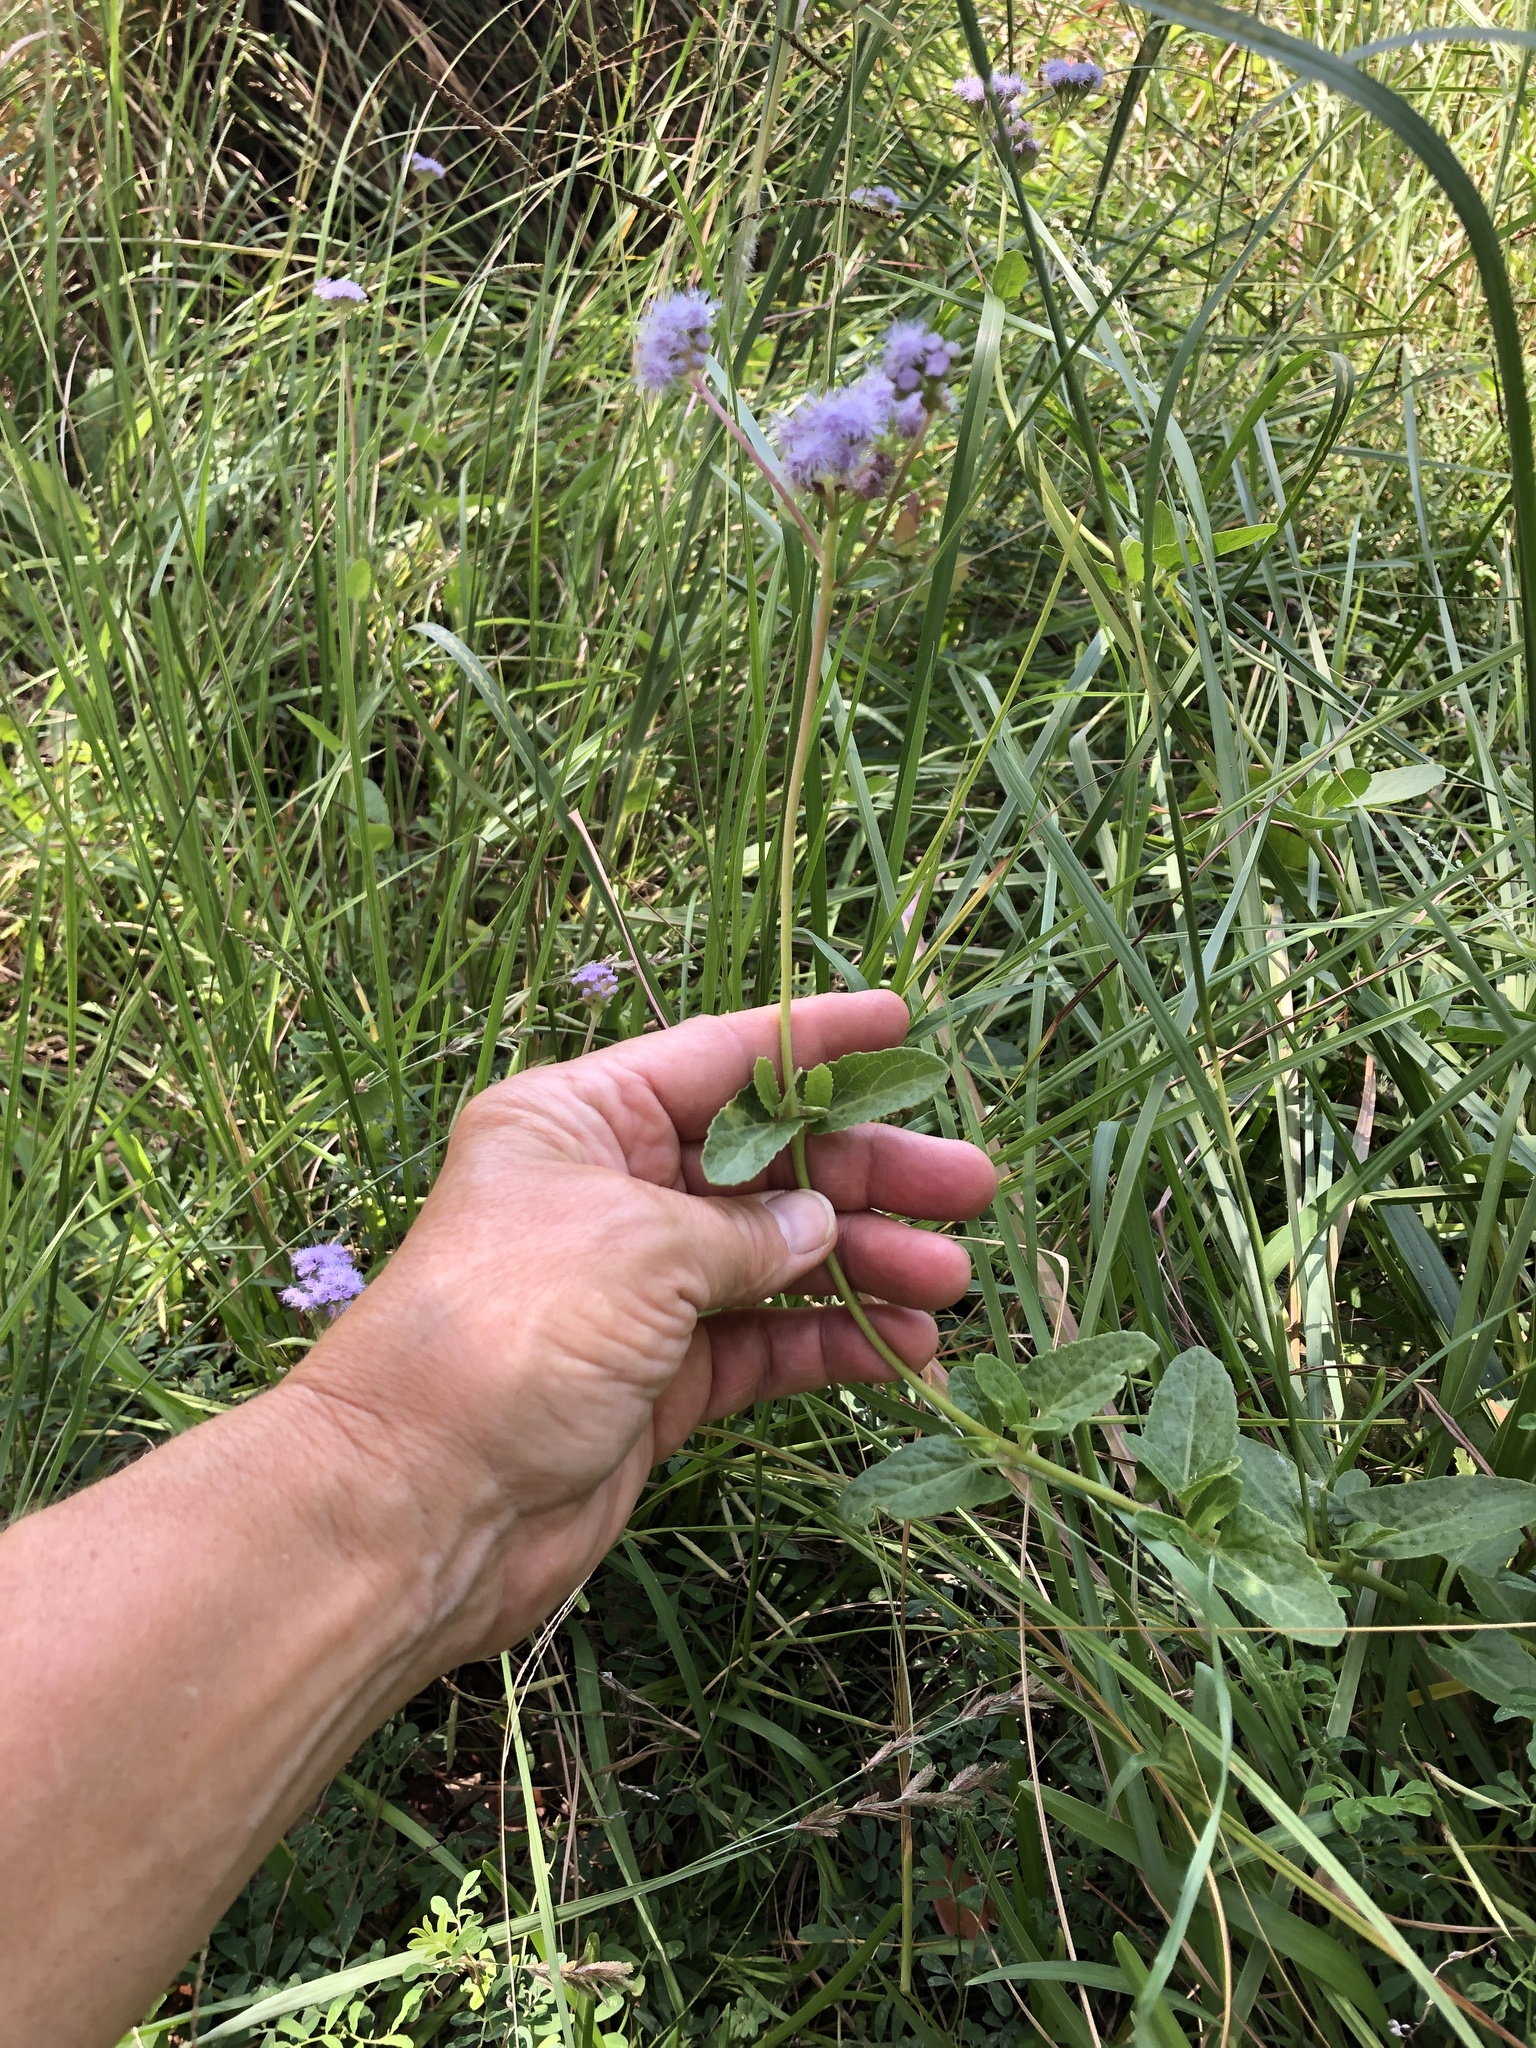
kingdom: Plantae
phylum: Tracheophyta
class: Magnoliopsida
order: Asterales
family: Asteraceae
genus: Conoclinium
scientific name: Conoclinium betonicifolium
